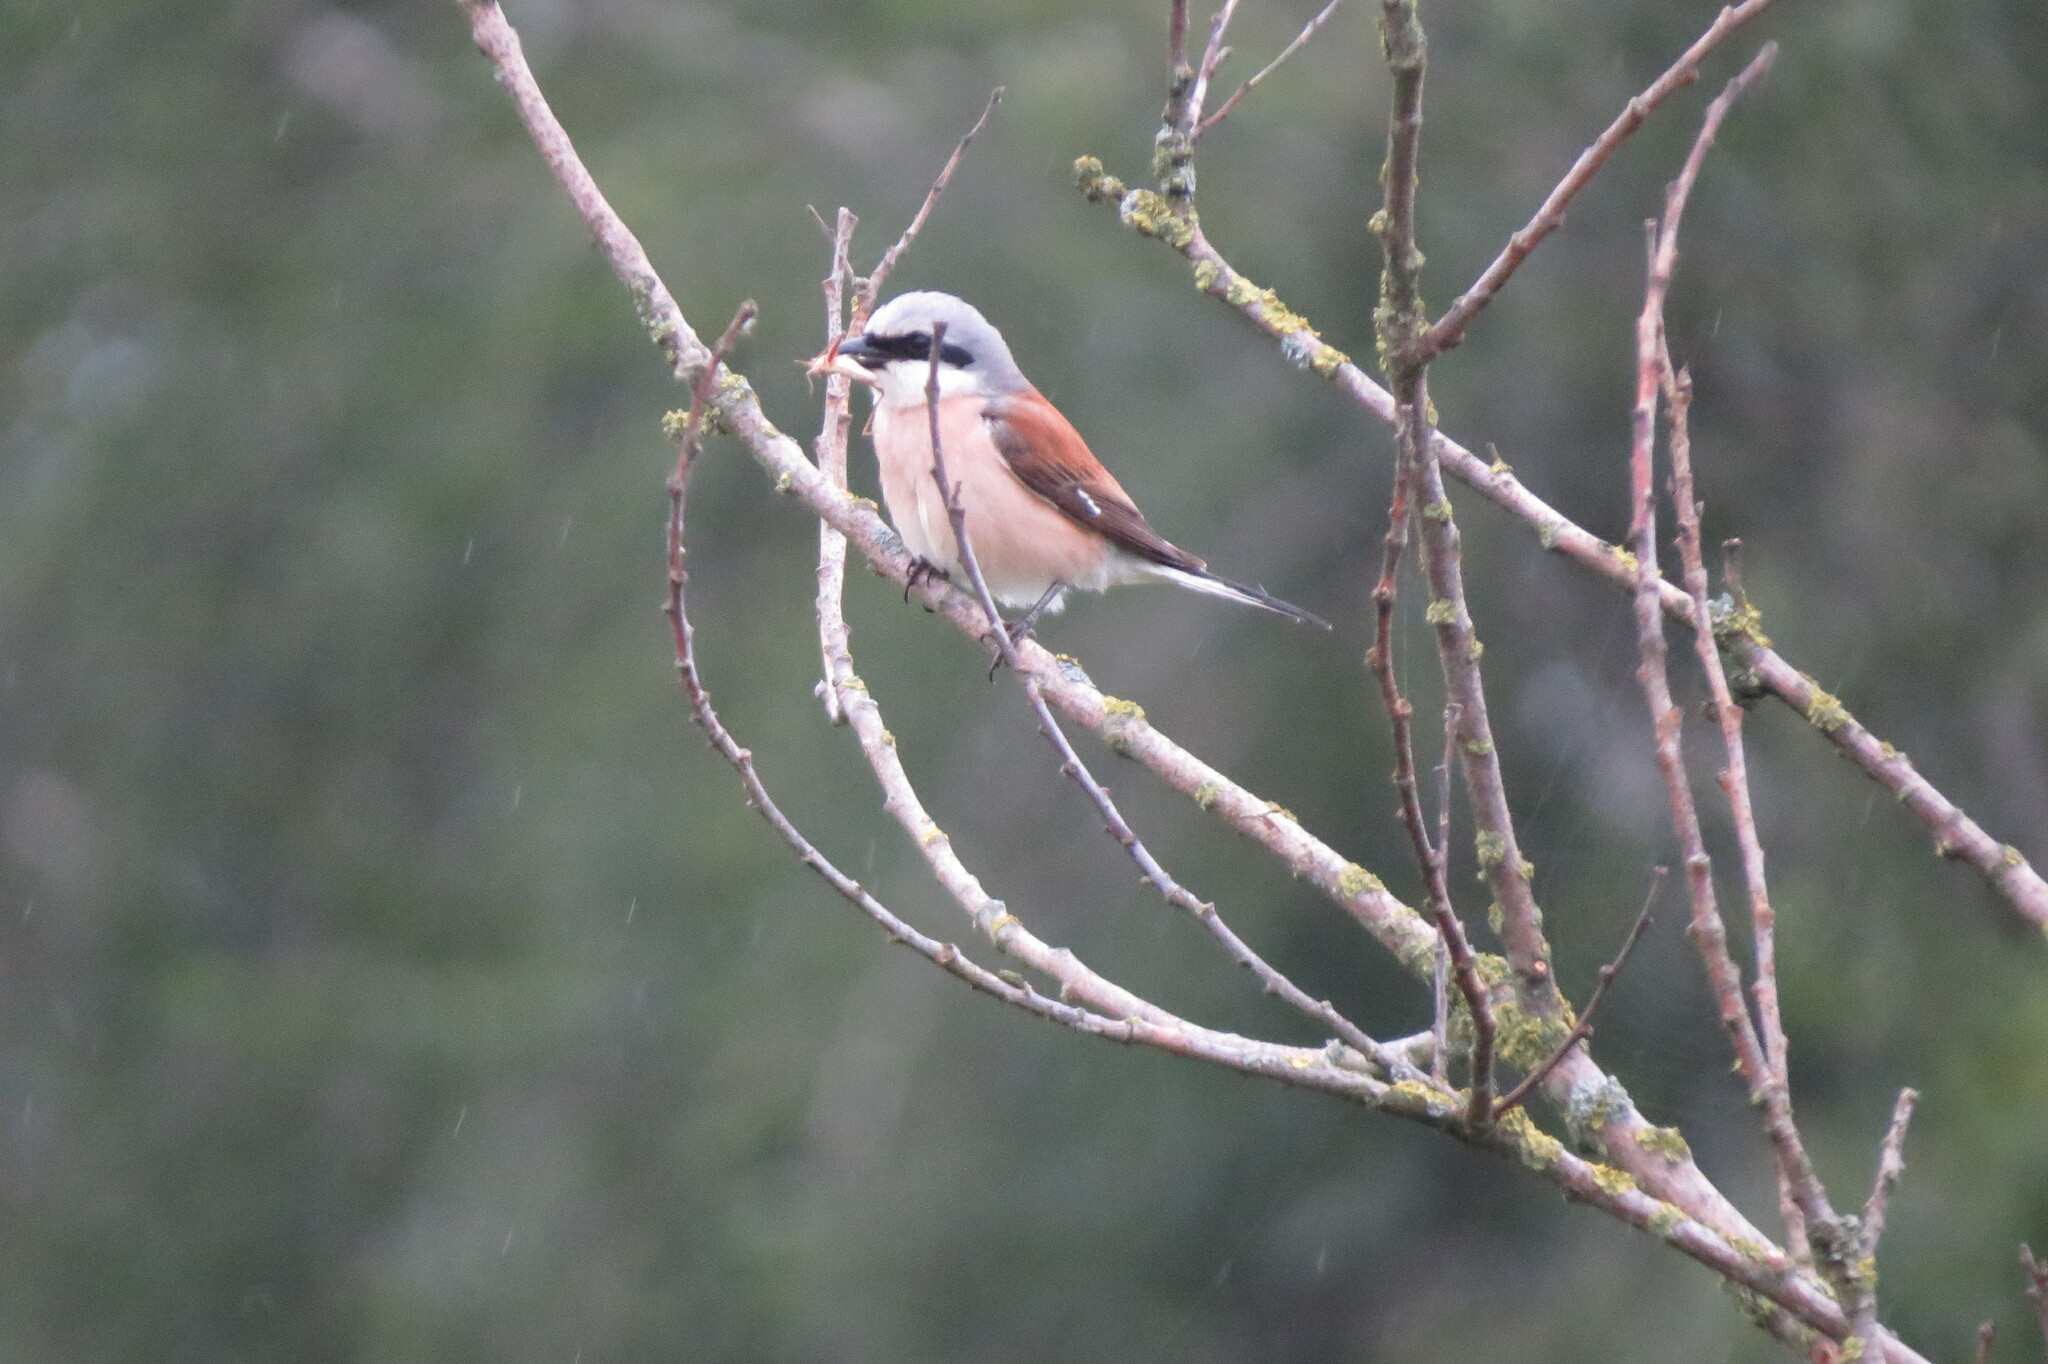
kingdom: Animalia
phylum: Chordata
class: Aves
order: Passeriformes
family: Laniidae
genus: Lanius
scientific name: Lanius collurio
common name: Red-backed shrike
